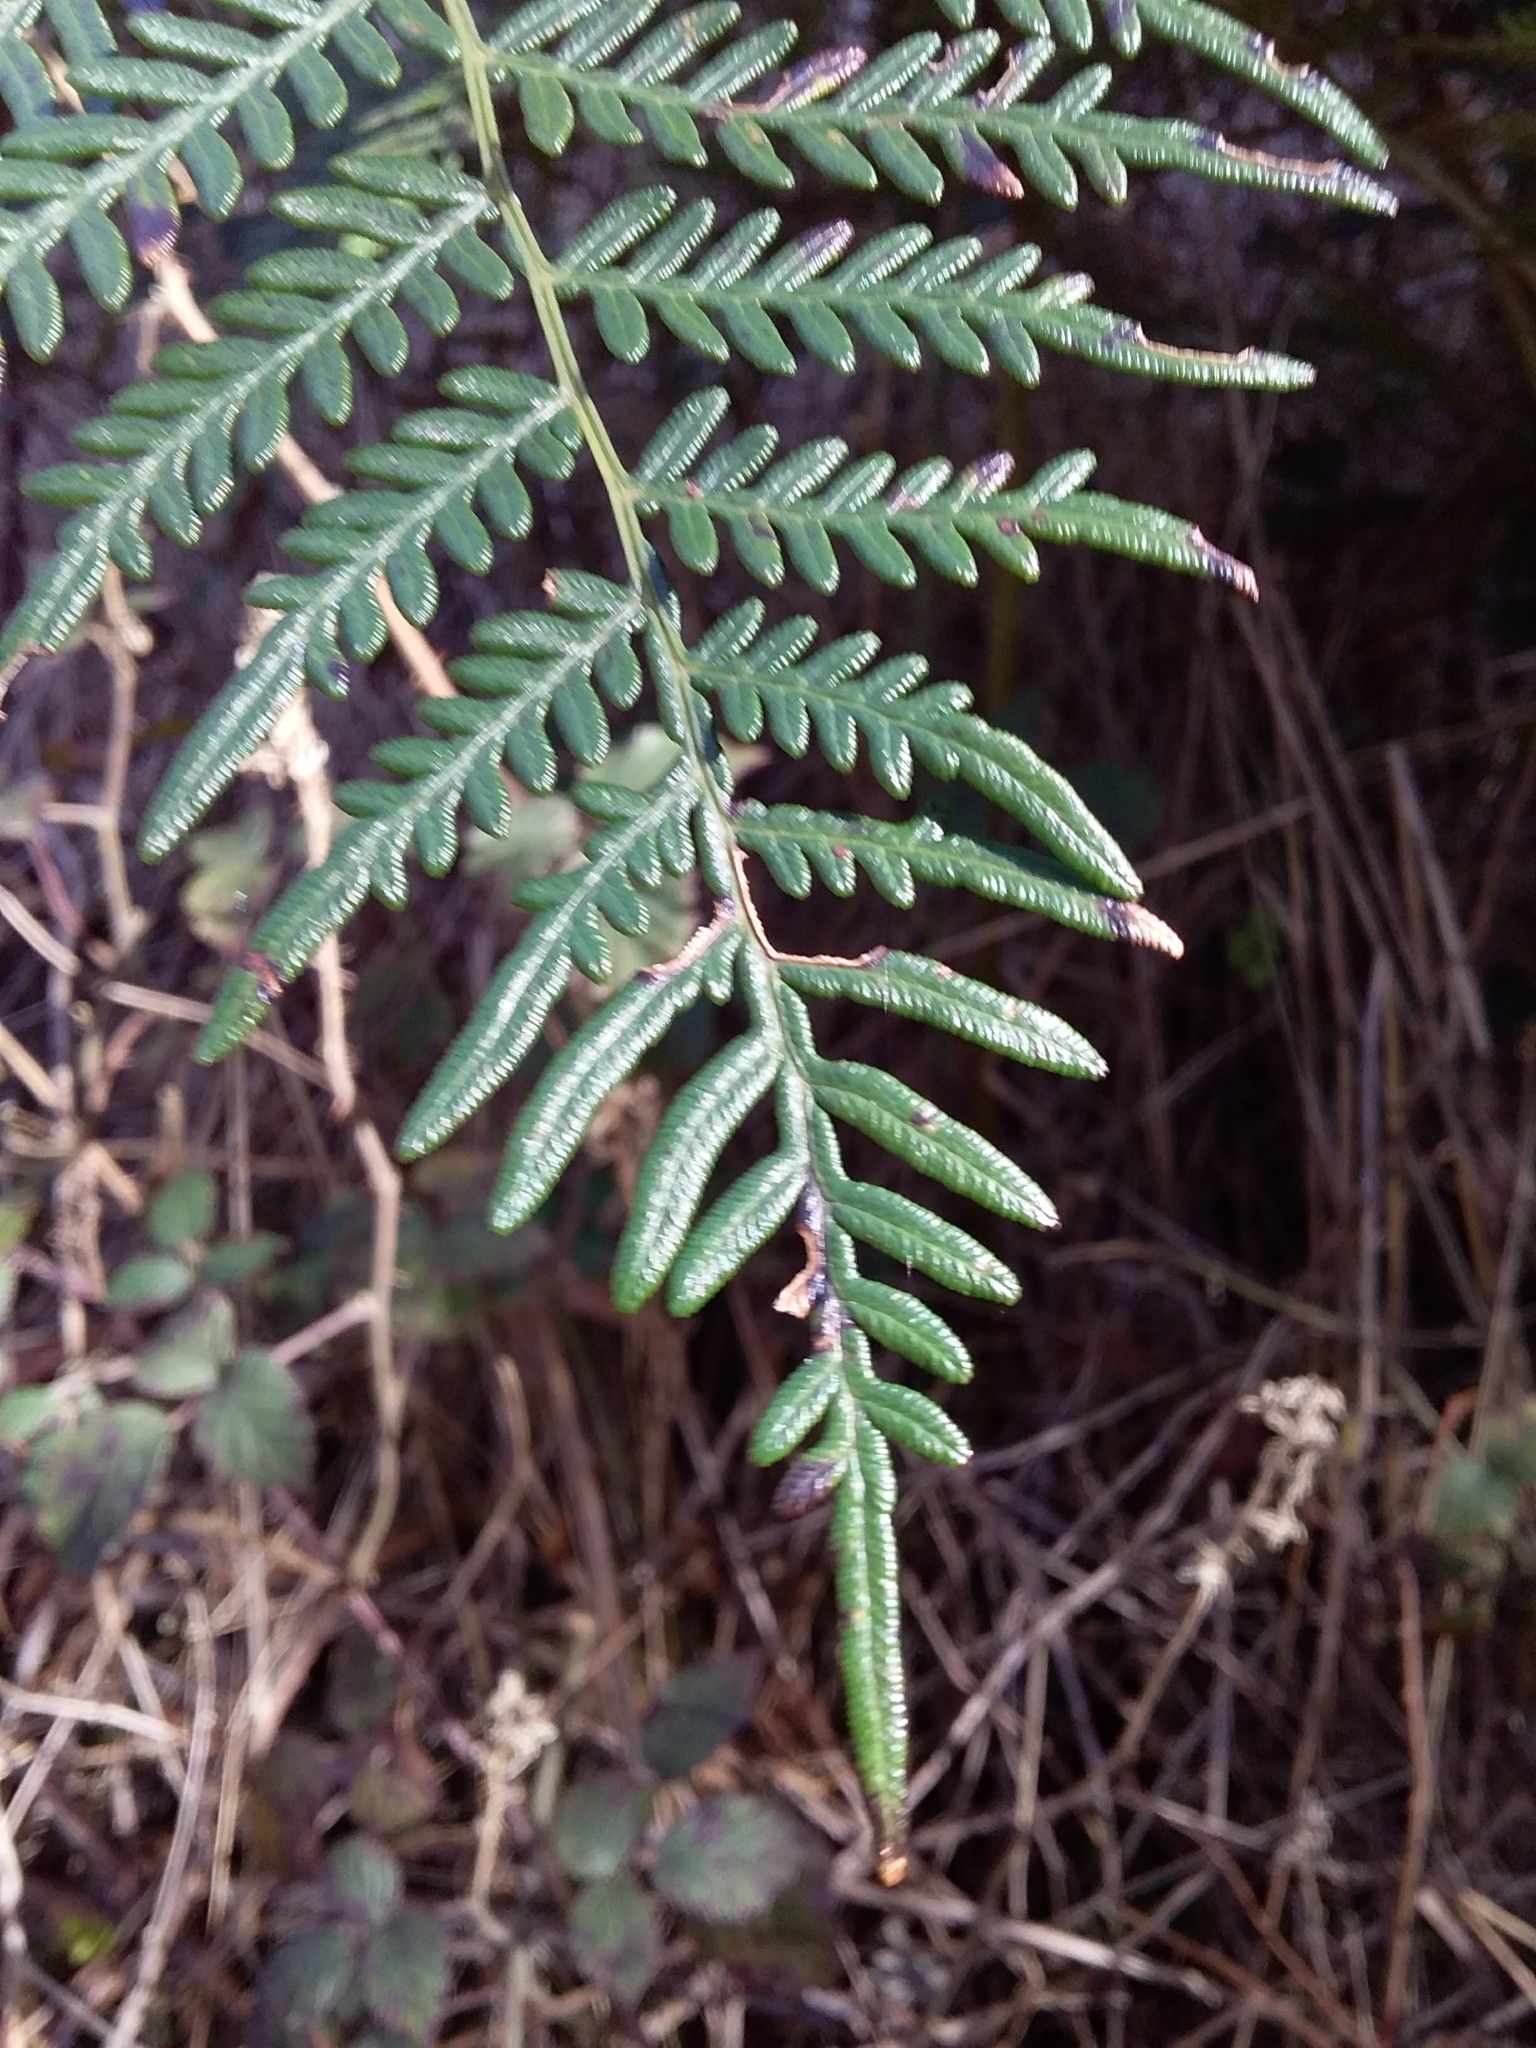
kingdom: Plantae
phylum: Tracheophyta
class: Polypodiopsida
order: Polypodiales
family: Dennstaedtiaceae
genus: Pteridium
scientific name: Pteridium esculentum
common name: Bracken fern
